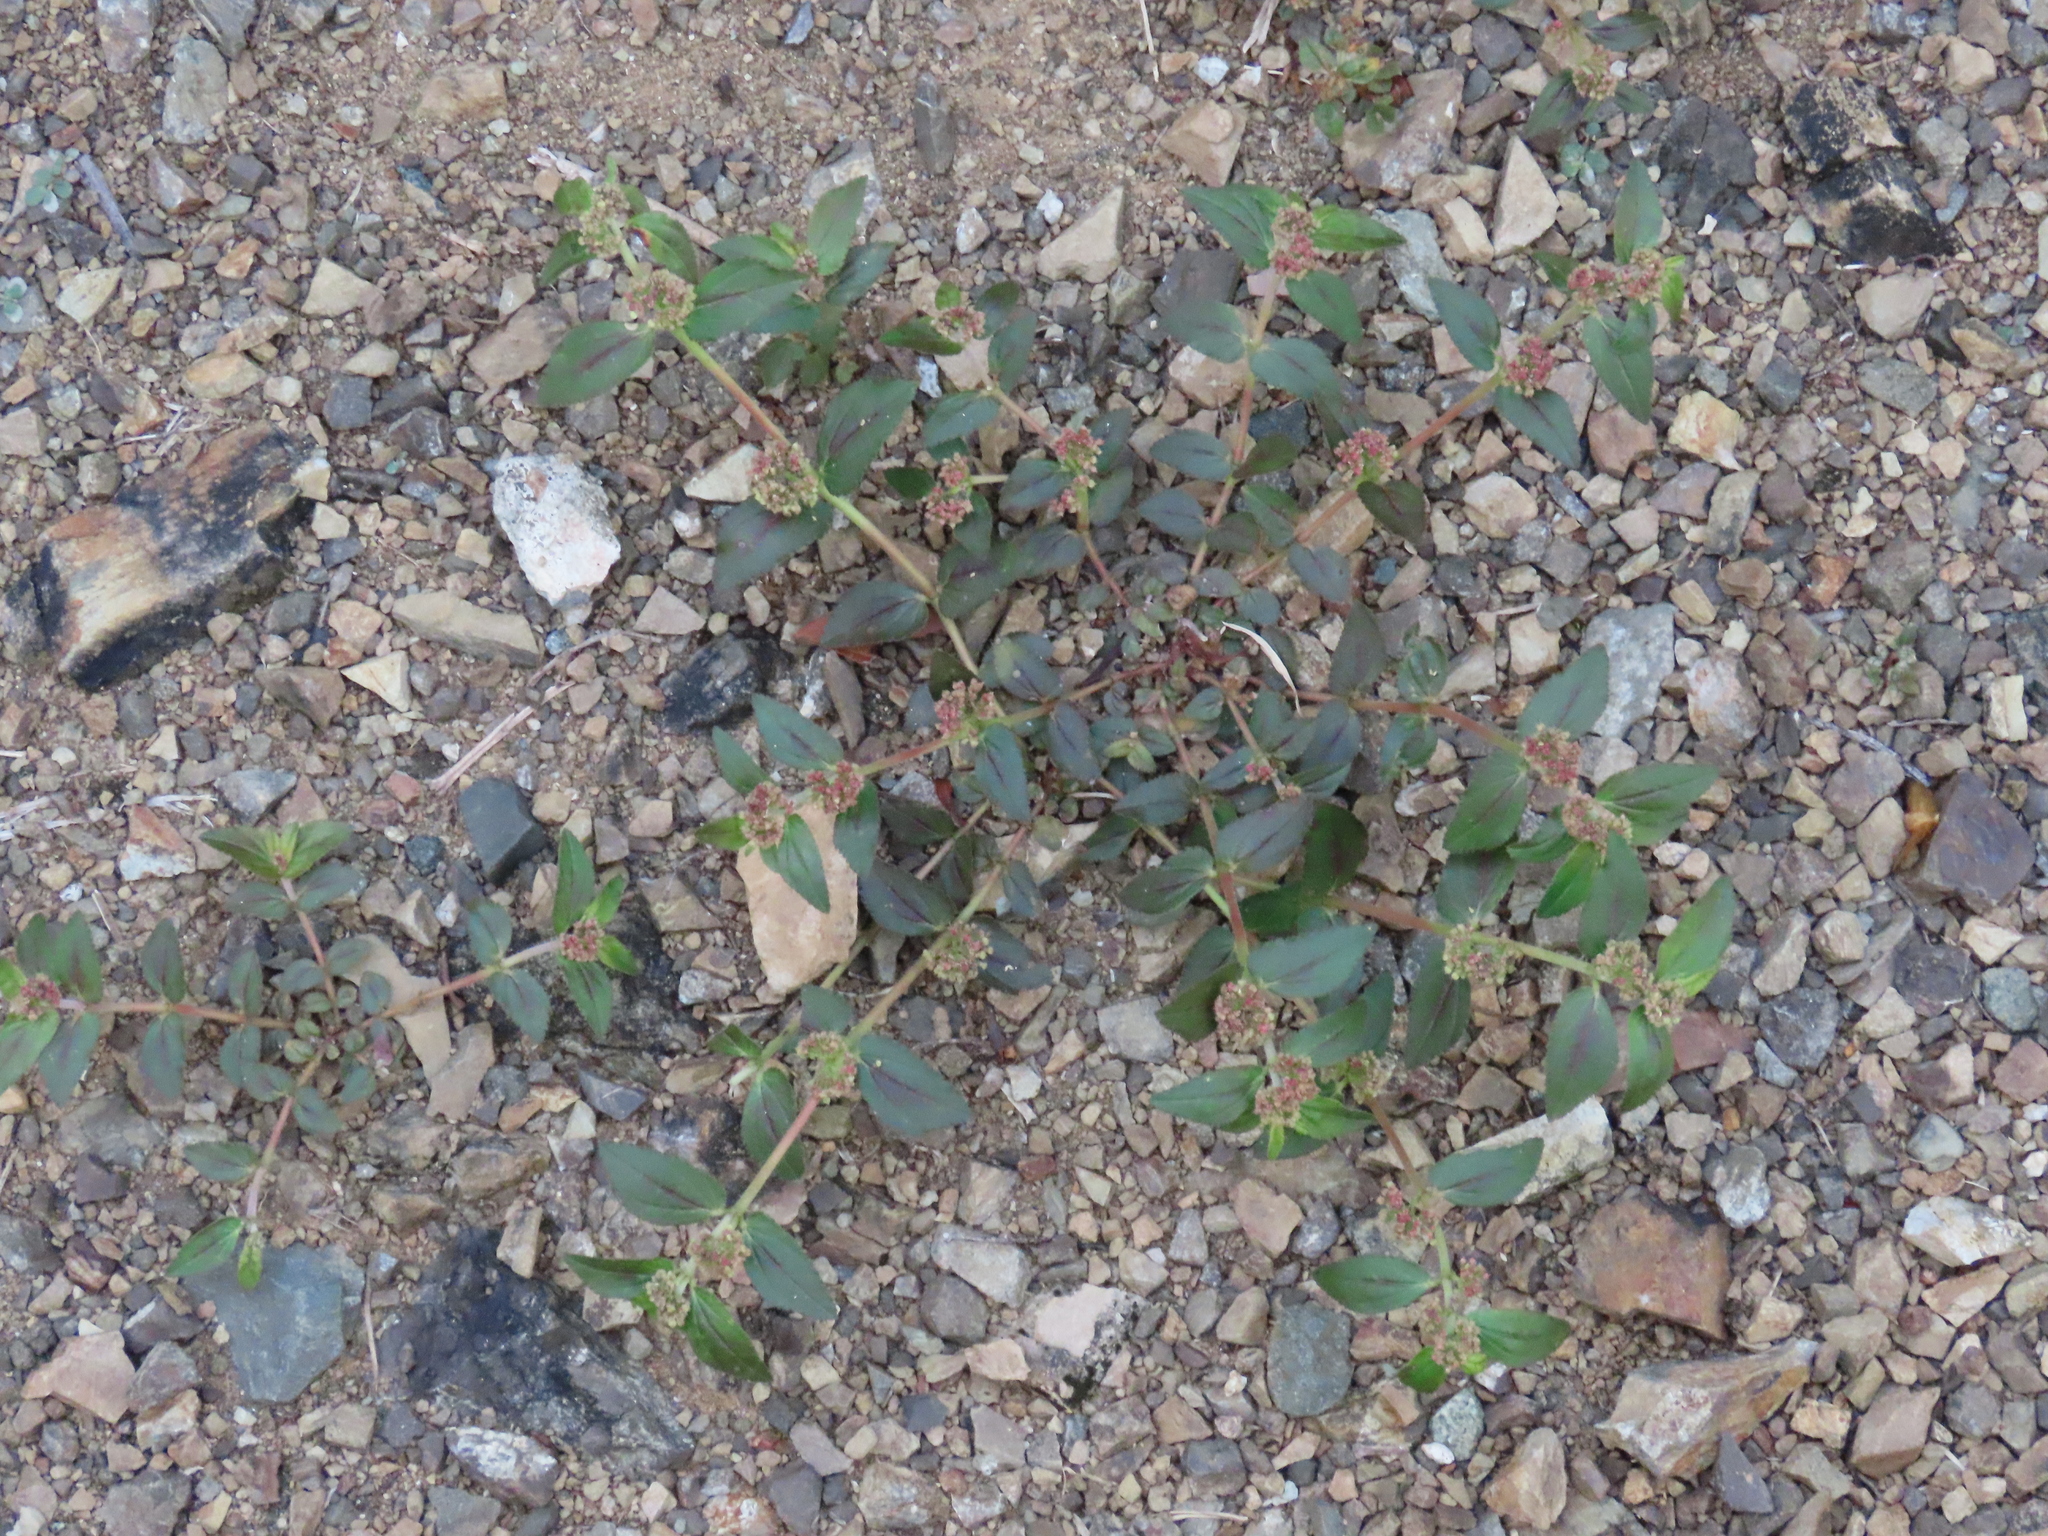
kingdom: Plantae
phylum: Tracheophyta
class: Magnoliopsida
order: Malpighiales
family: Euphorbiaceae
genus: Euphorbia
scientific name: Euphorbia hirta
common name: Pillpod sandmat
